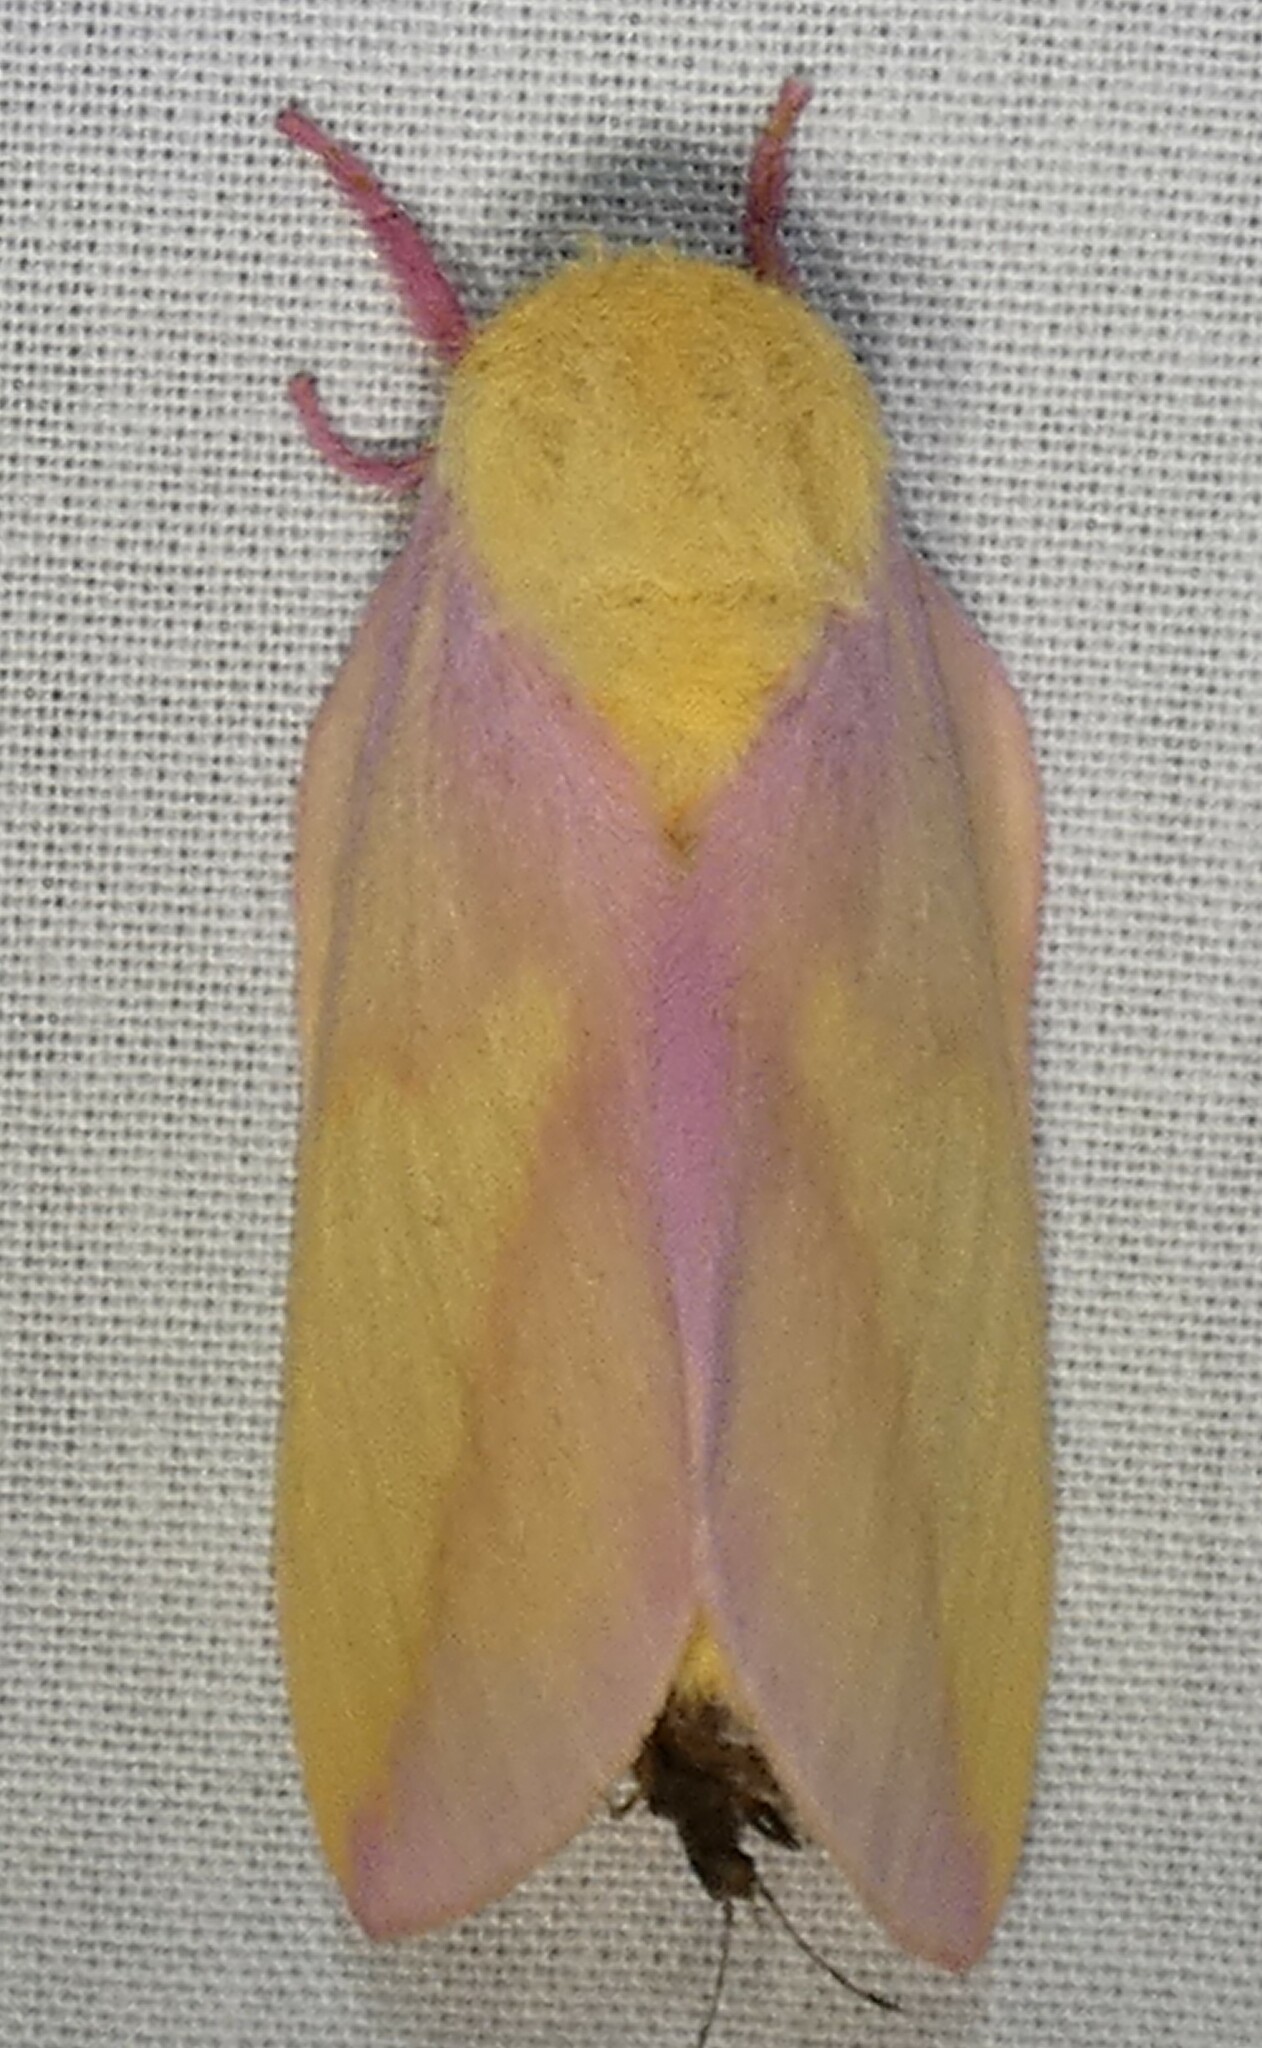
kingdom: Animalia
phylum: Arthropoda
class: Insecta
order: Lepidoptera
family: Saturniidae
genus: Dryocampa
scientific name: Dryocampa rubicunda
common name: Rosy maple moth
